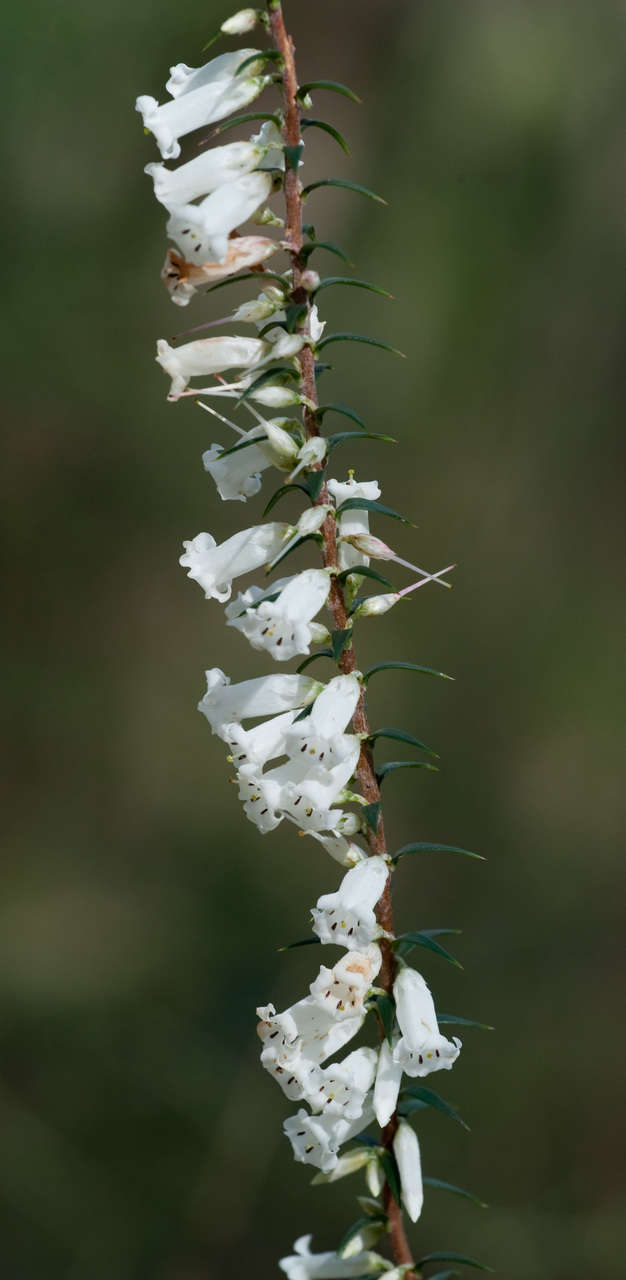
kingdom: Plantae
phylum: Tracheophyta
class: Magnoliopsida
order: Ericales
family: Ericaceae
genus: Epacris
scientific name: Epacris impressa
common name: Common-heath
